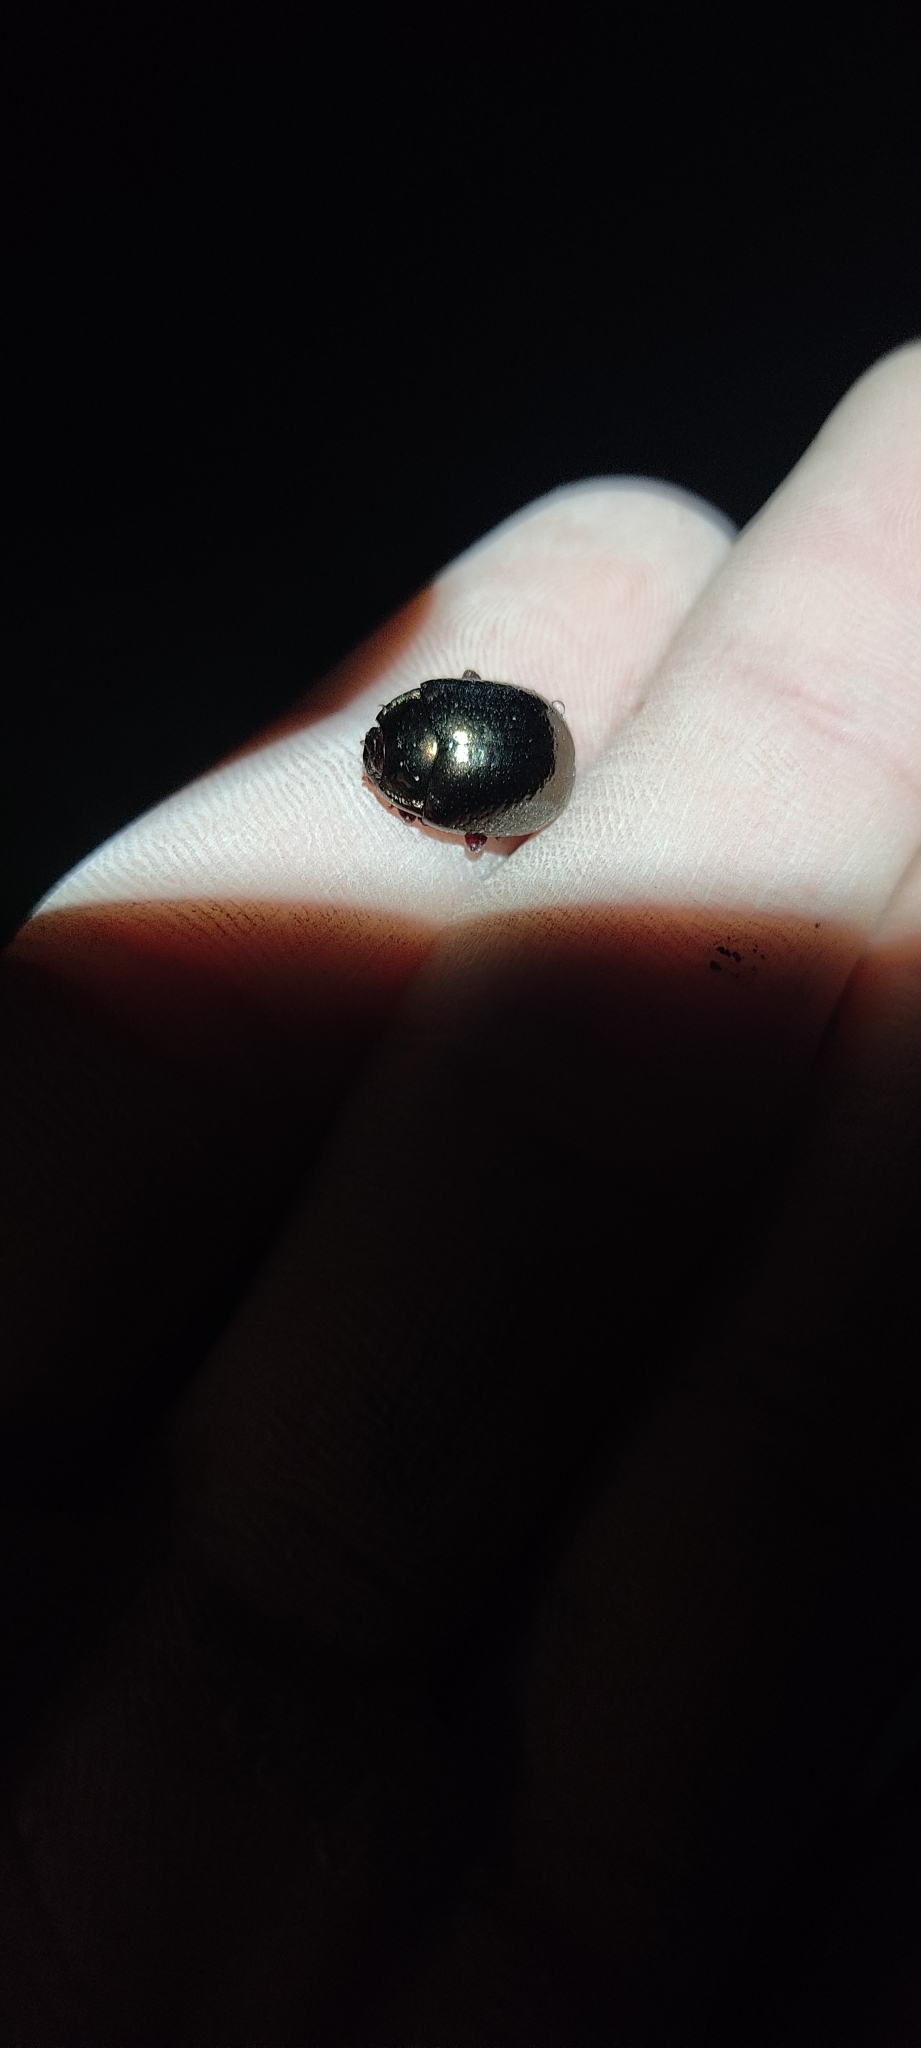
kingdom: Animalia
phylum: Arthropoda
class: Insecta
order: Coleoptera
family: Chrysomelidae
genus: Chrysolina
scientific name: Chrysolina bankii
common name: Leaf beetle
